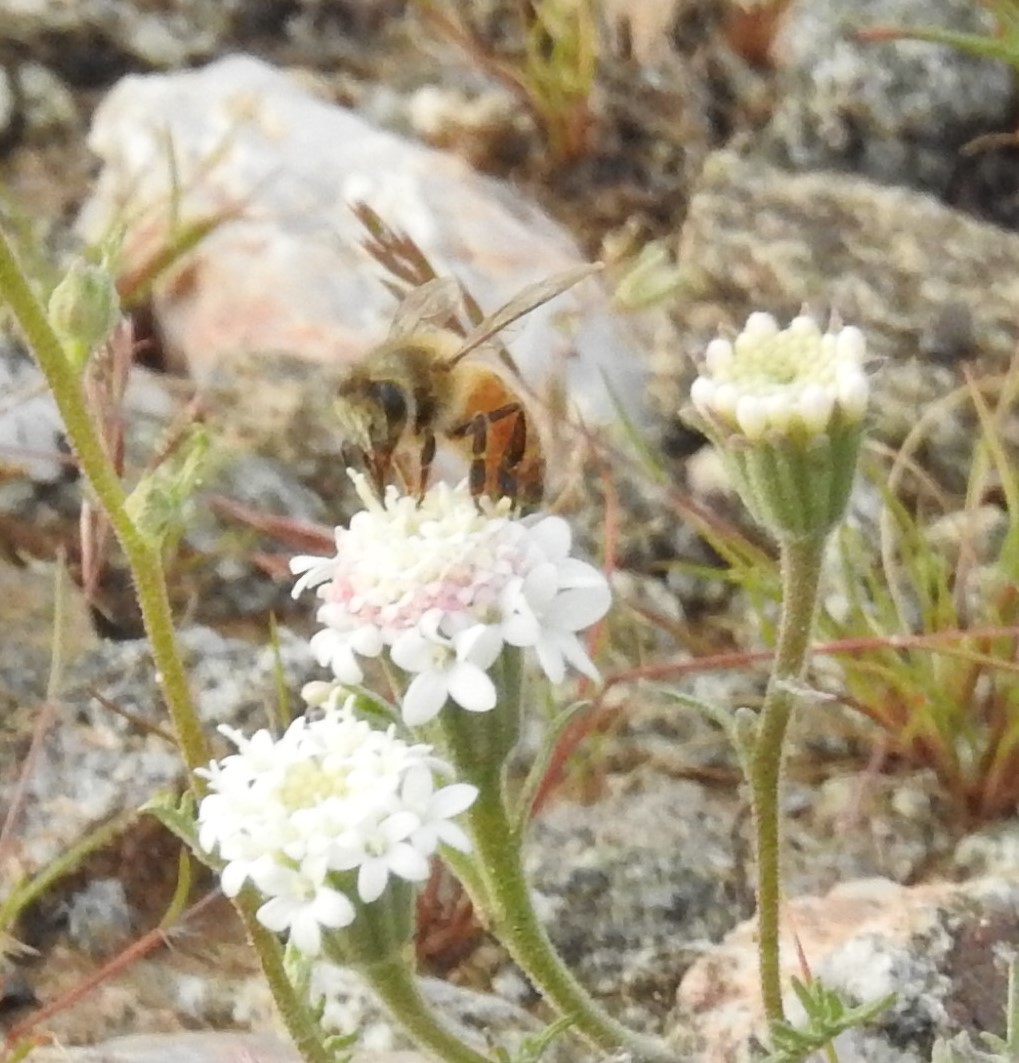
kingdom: Animalia
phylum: Arthropoda
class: Insecta
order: Hymenoptera
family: Apidae
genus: Apis
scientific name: Apis mellifera
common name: Honey bee
